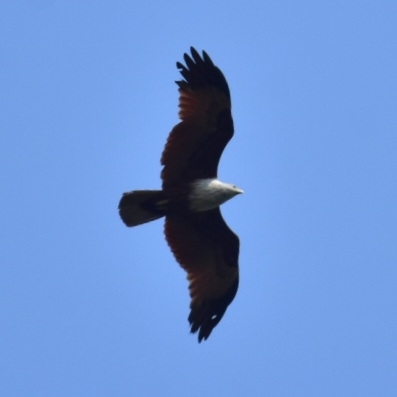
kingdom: Animalia
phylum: Chordata
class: Aves
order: Accipitriformes
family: Accipitridae
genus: Haliastur
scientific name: Haliastur indus
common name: Brahminy kite
